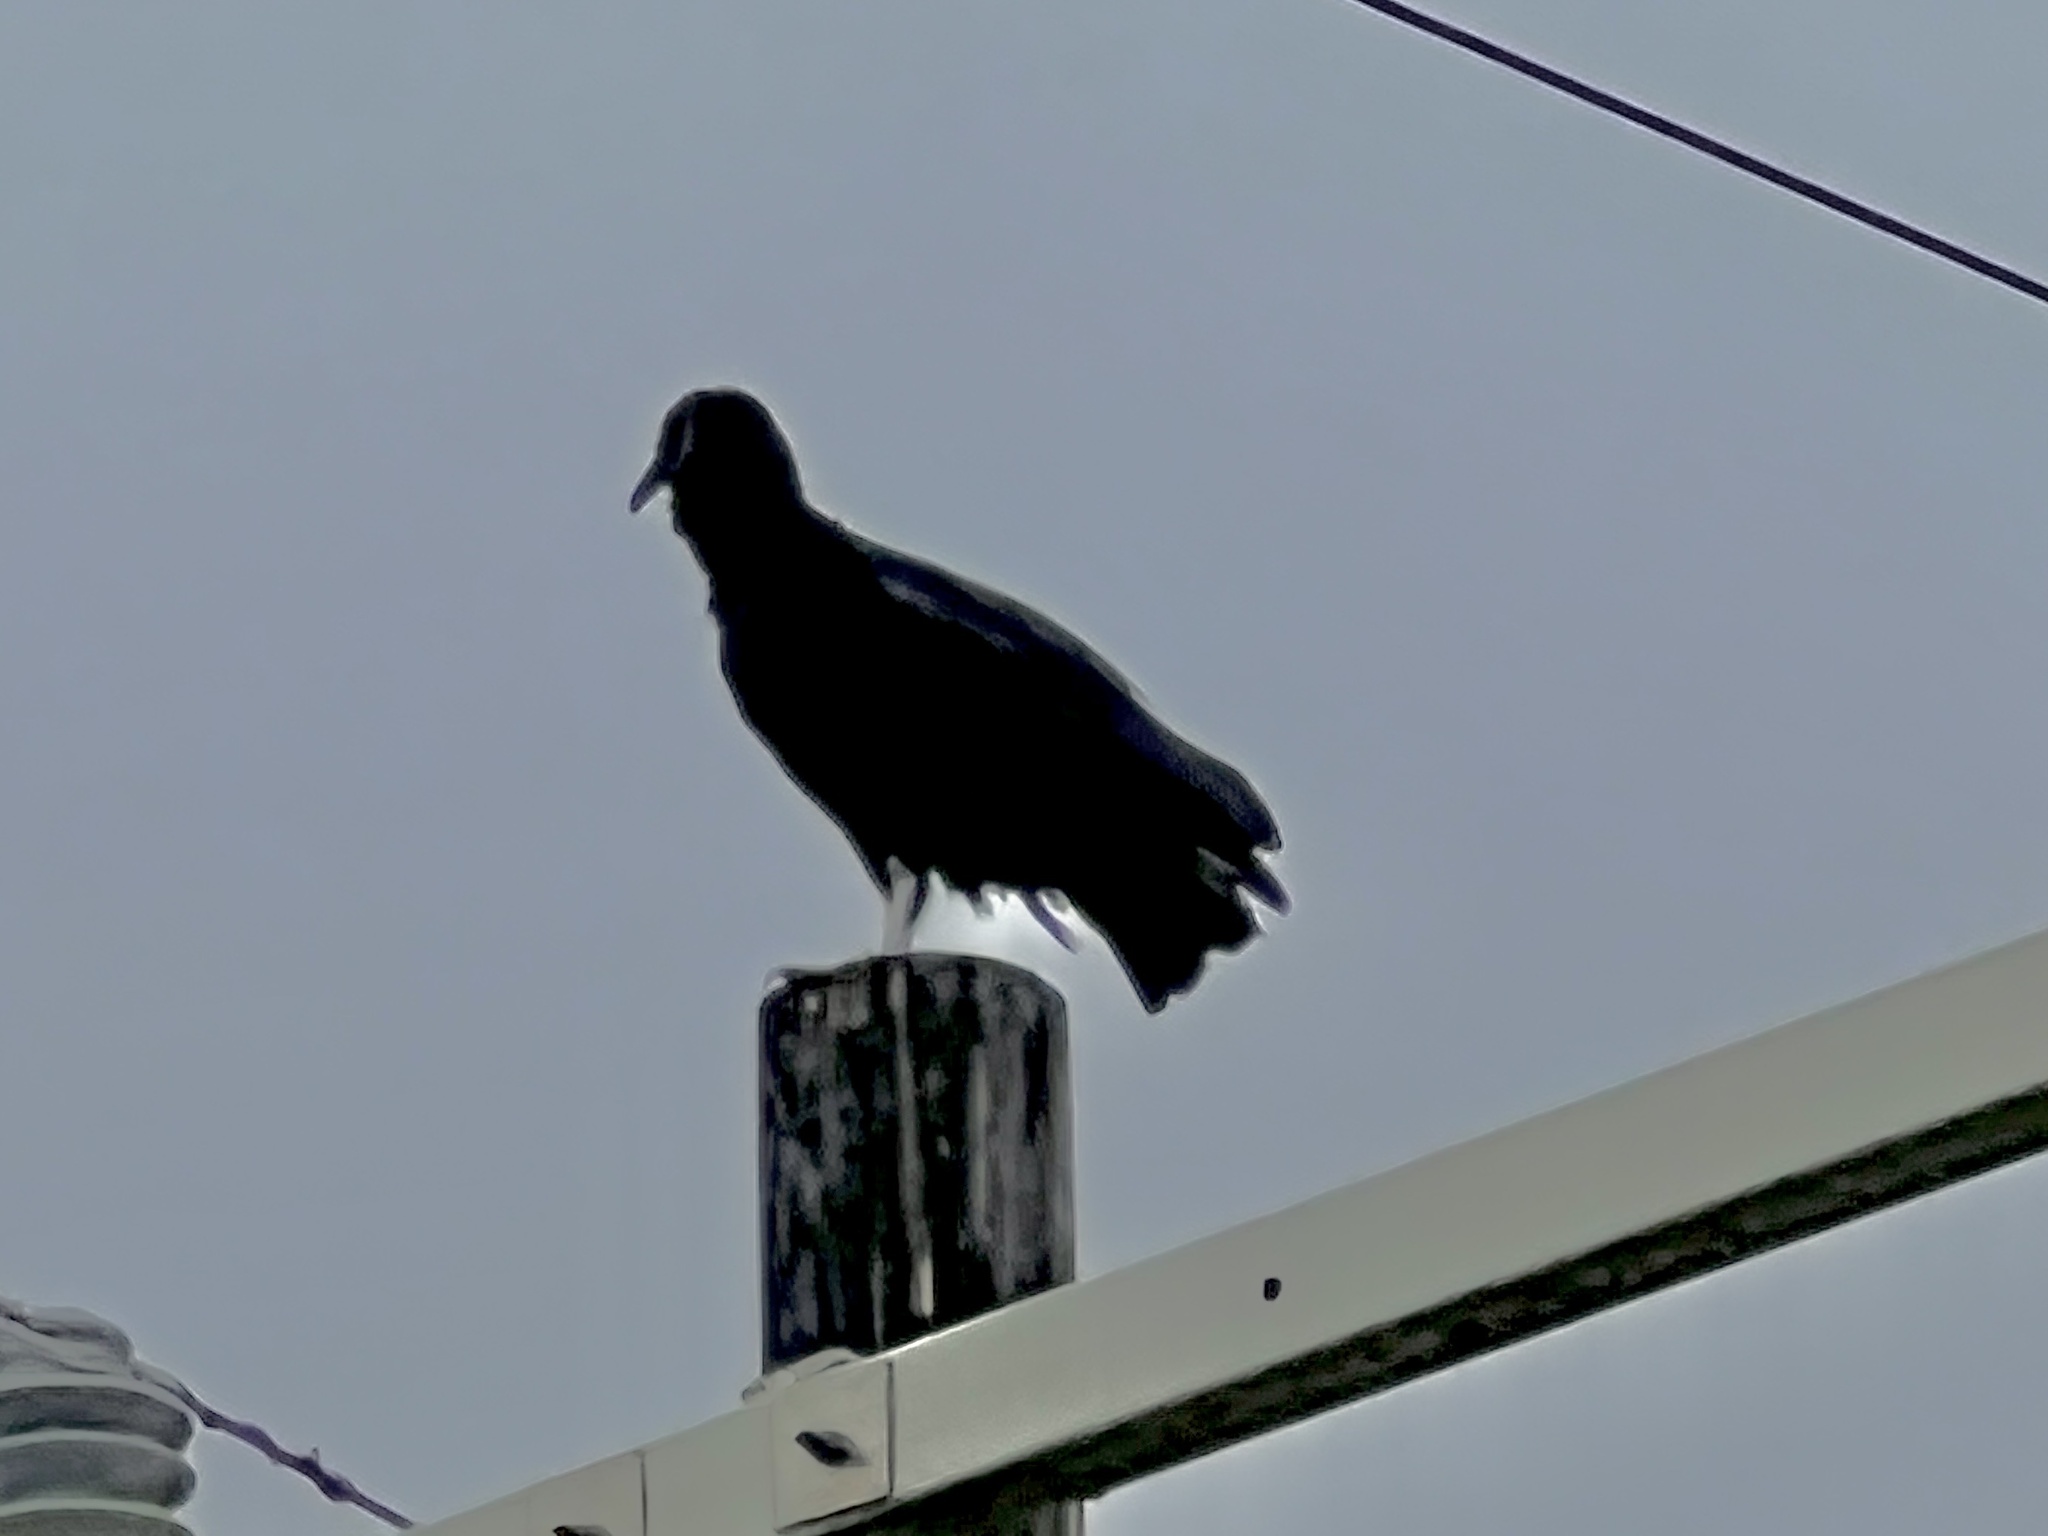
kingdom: Animalia
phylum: Chordata
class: Aves
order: Accipitriformes
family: Cathartidae
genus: Coragyps
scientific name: Coragyps atratus
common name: Black vulture
